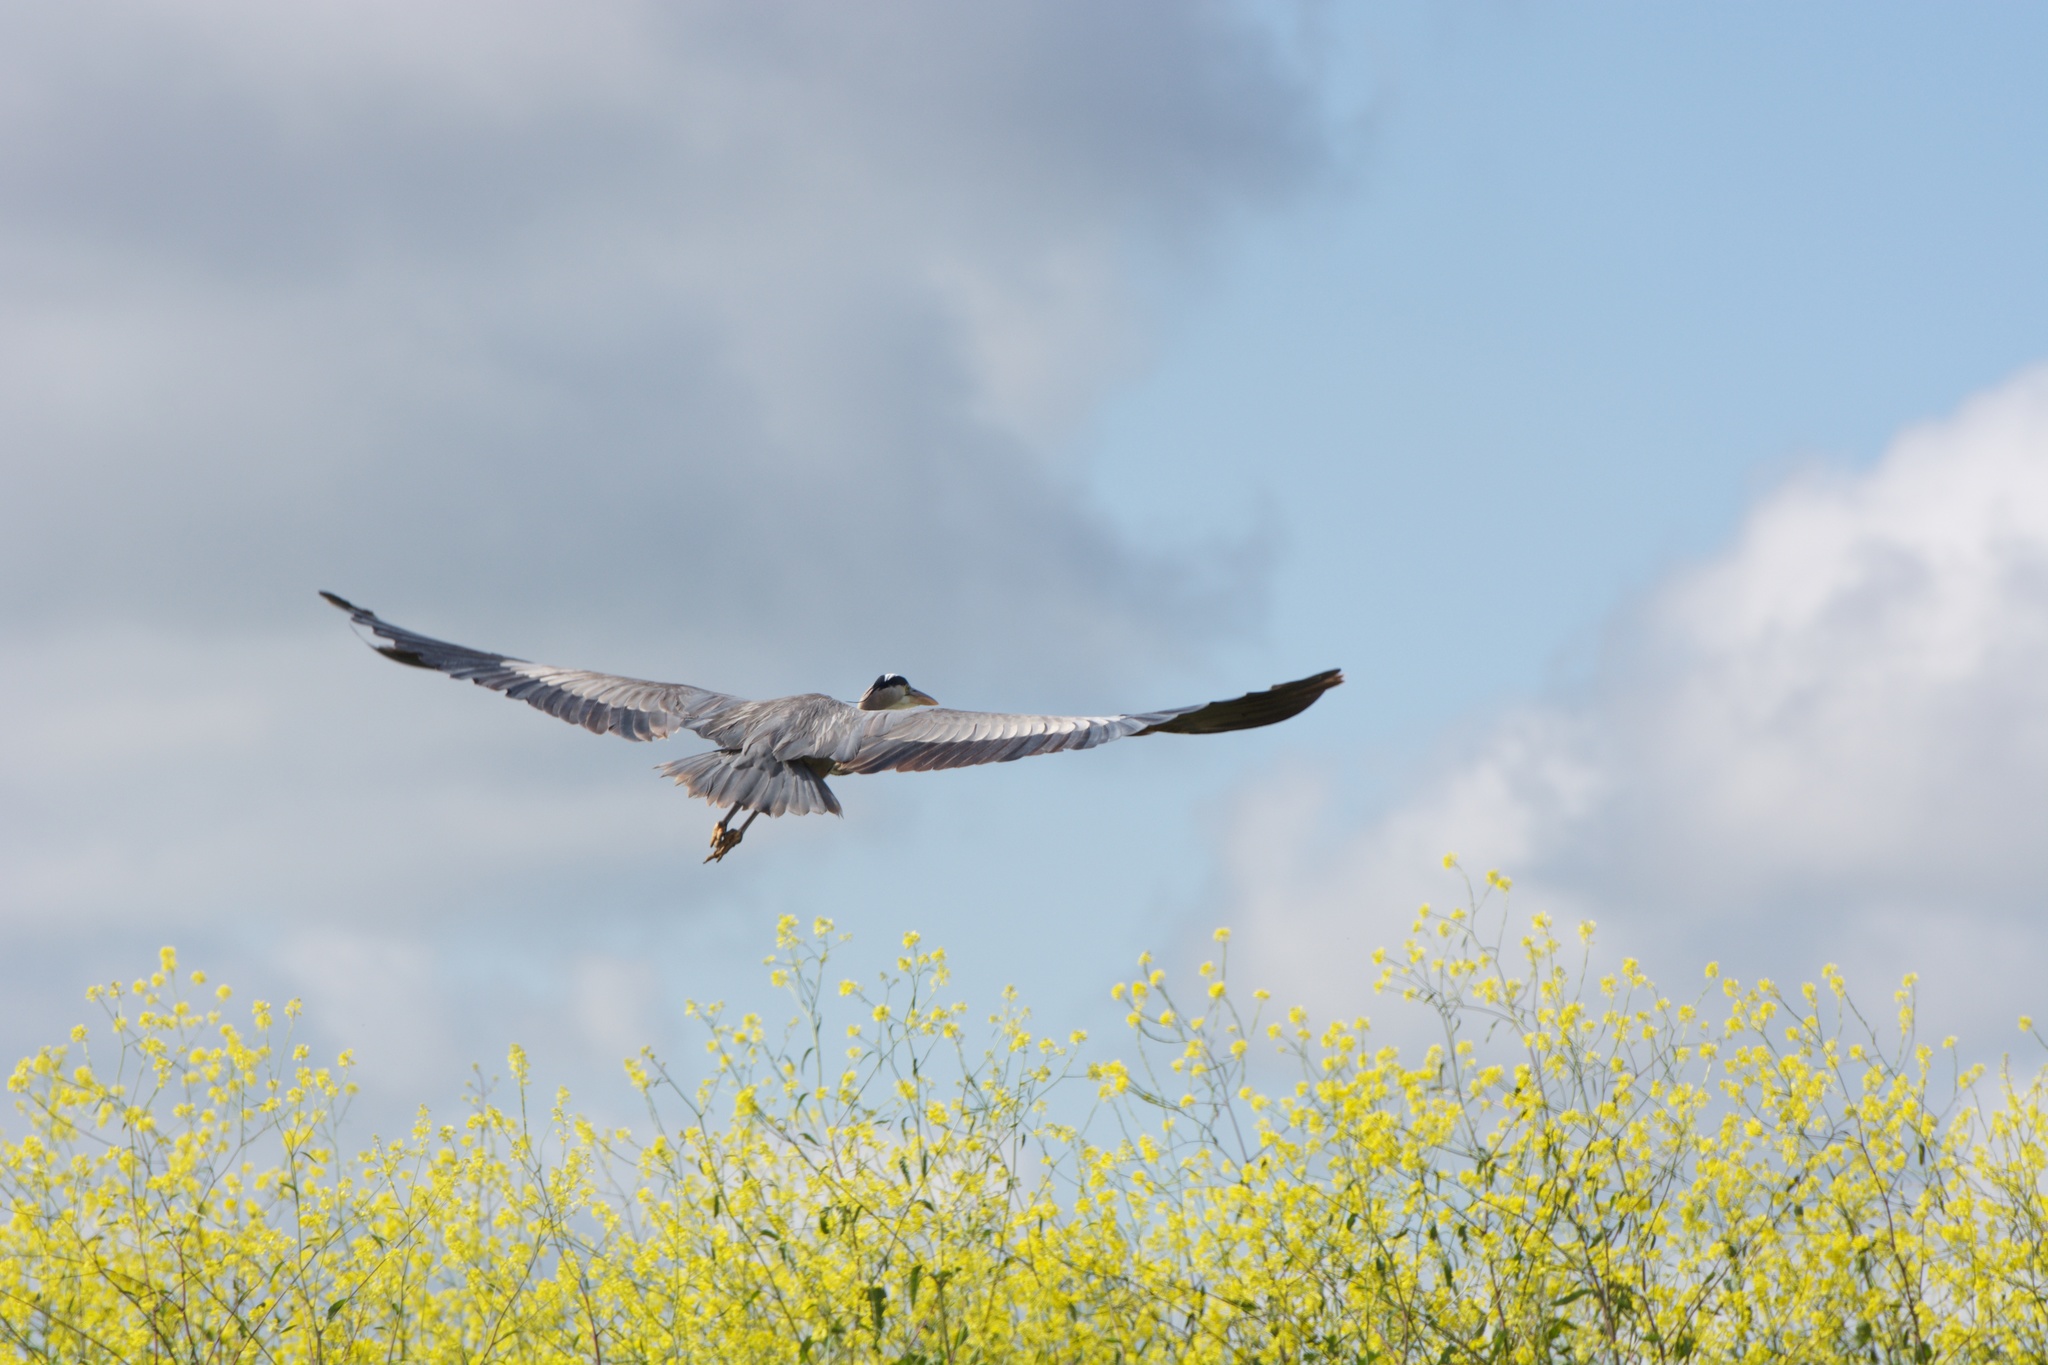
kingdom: Animalia
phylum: Chordata
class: Aves
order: Pelecaniformes
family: Ardeidae
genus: Ardea
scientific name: Ardea herodias
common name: Great blue heron
